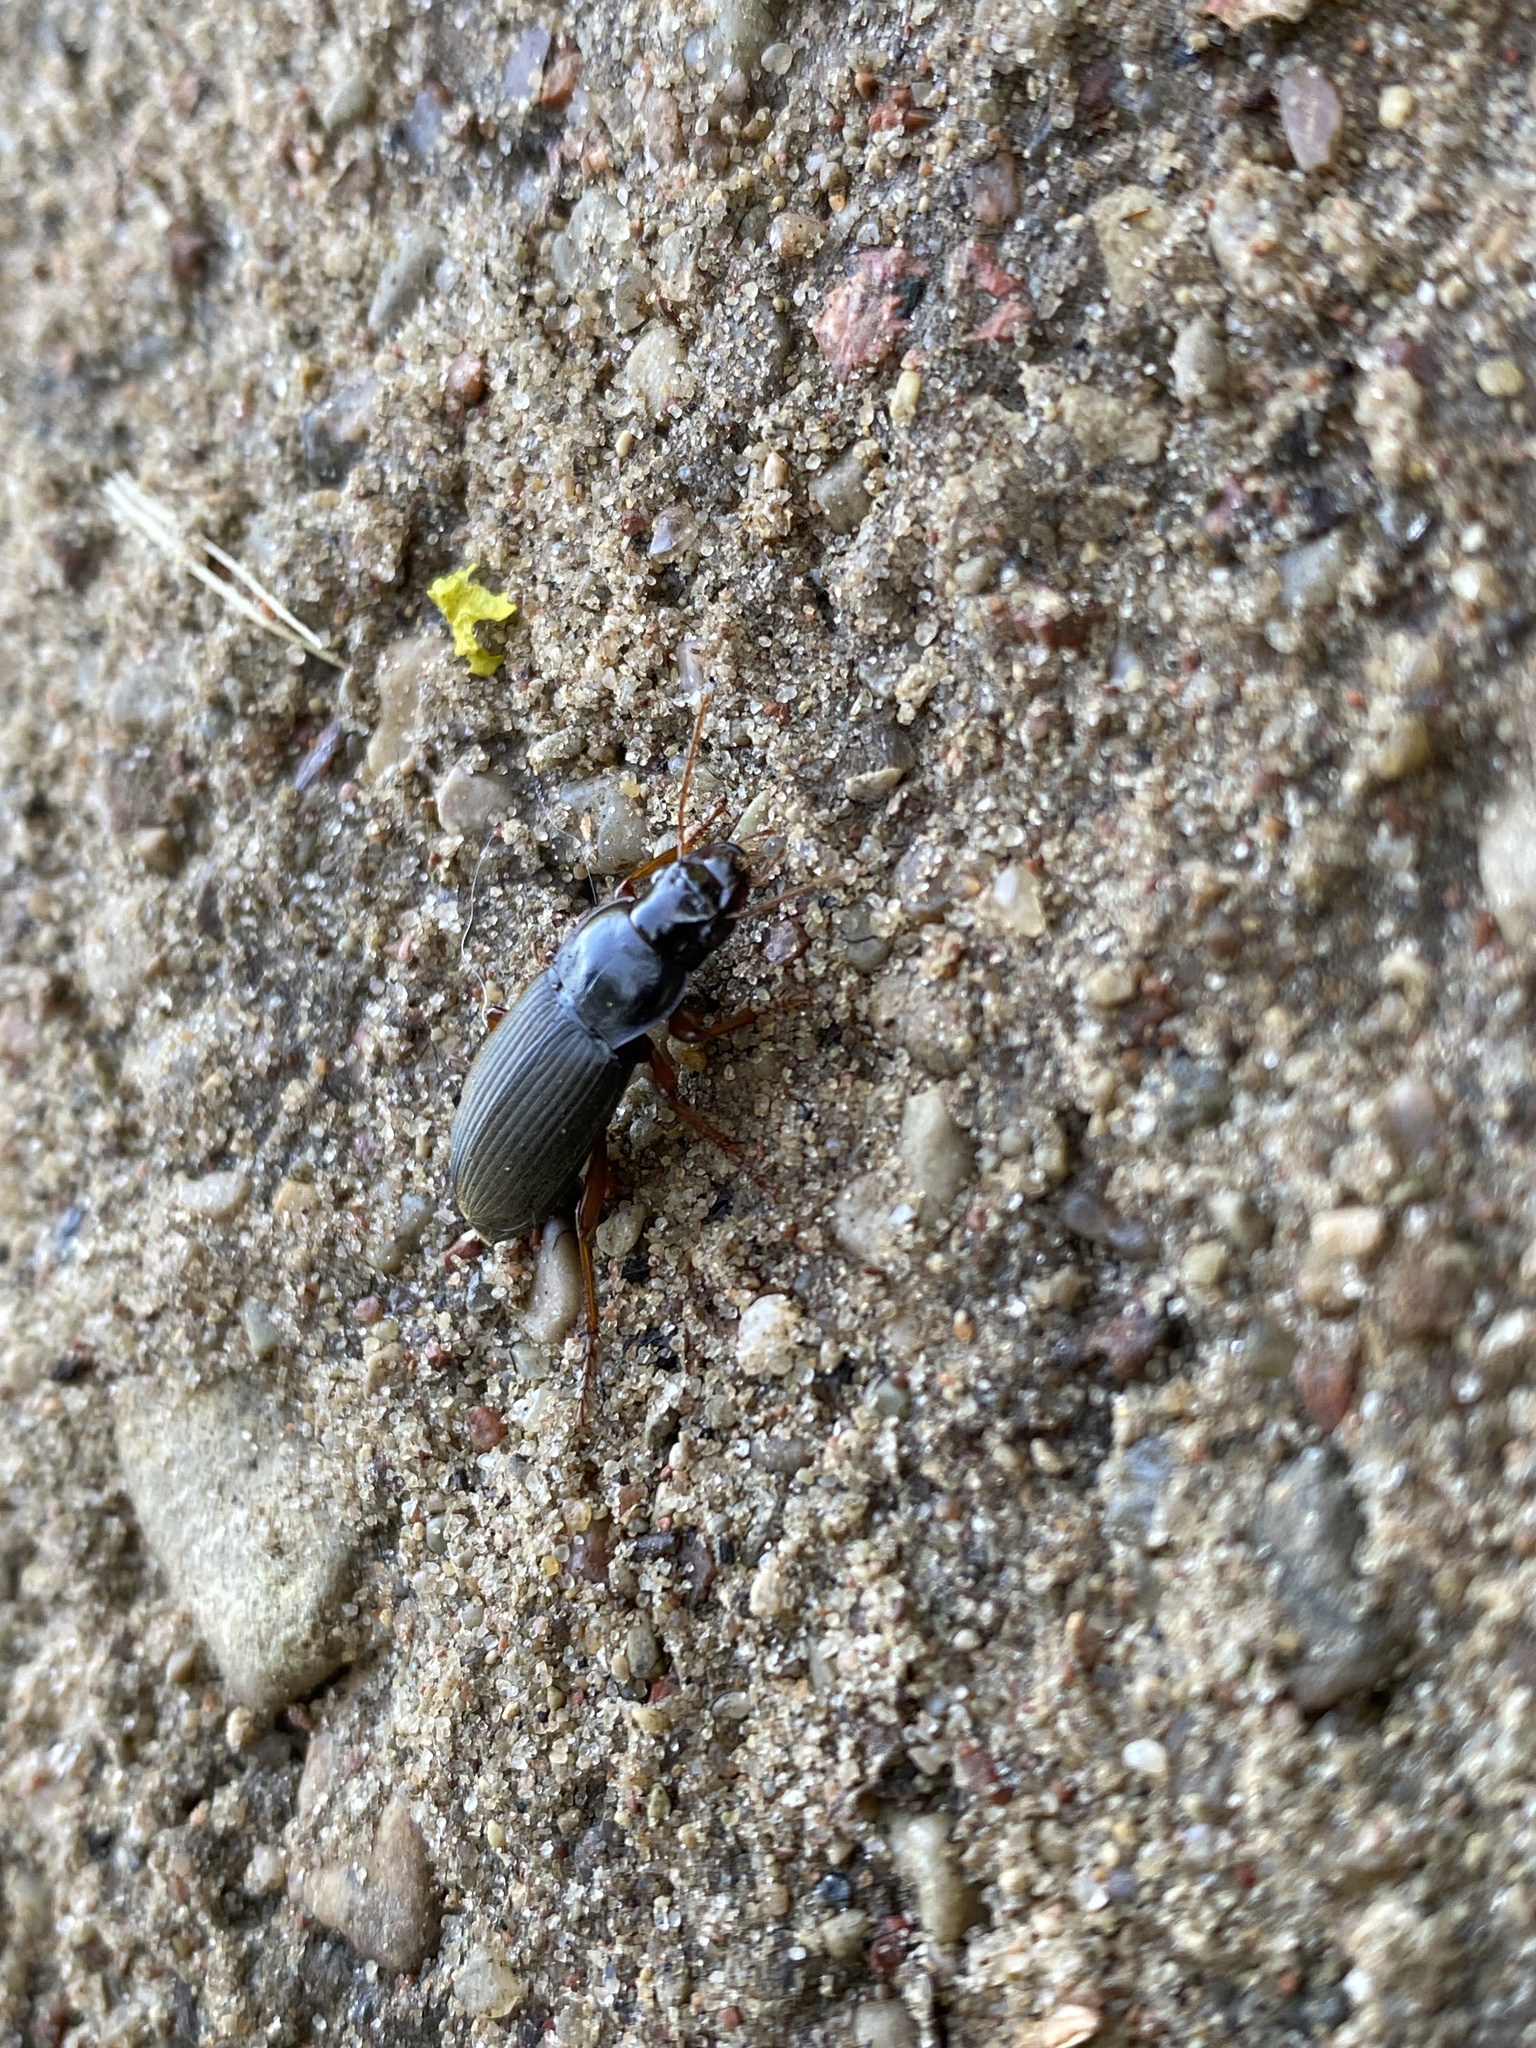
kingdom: Animalia
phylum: Arthropoda
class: Insecta
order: Coleoptera
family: Carabidae
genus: Harpalus
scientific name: Harpalus rufipes
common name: Strawberry harp ground beetle
